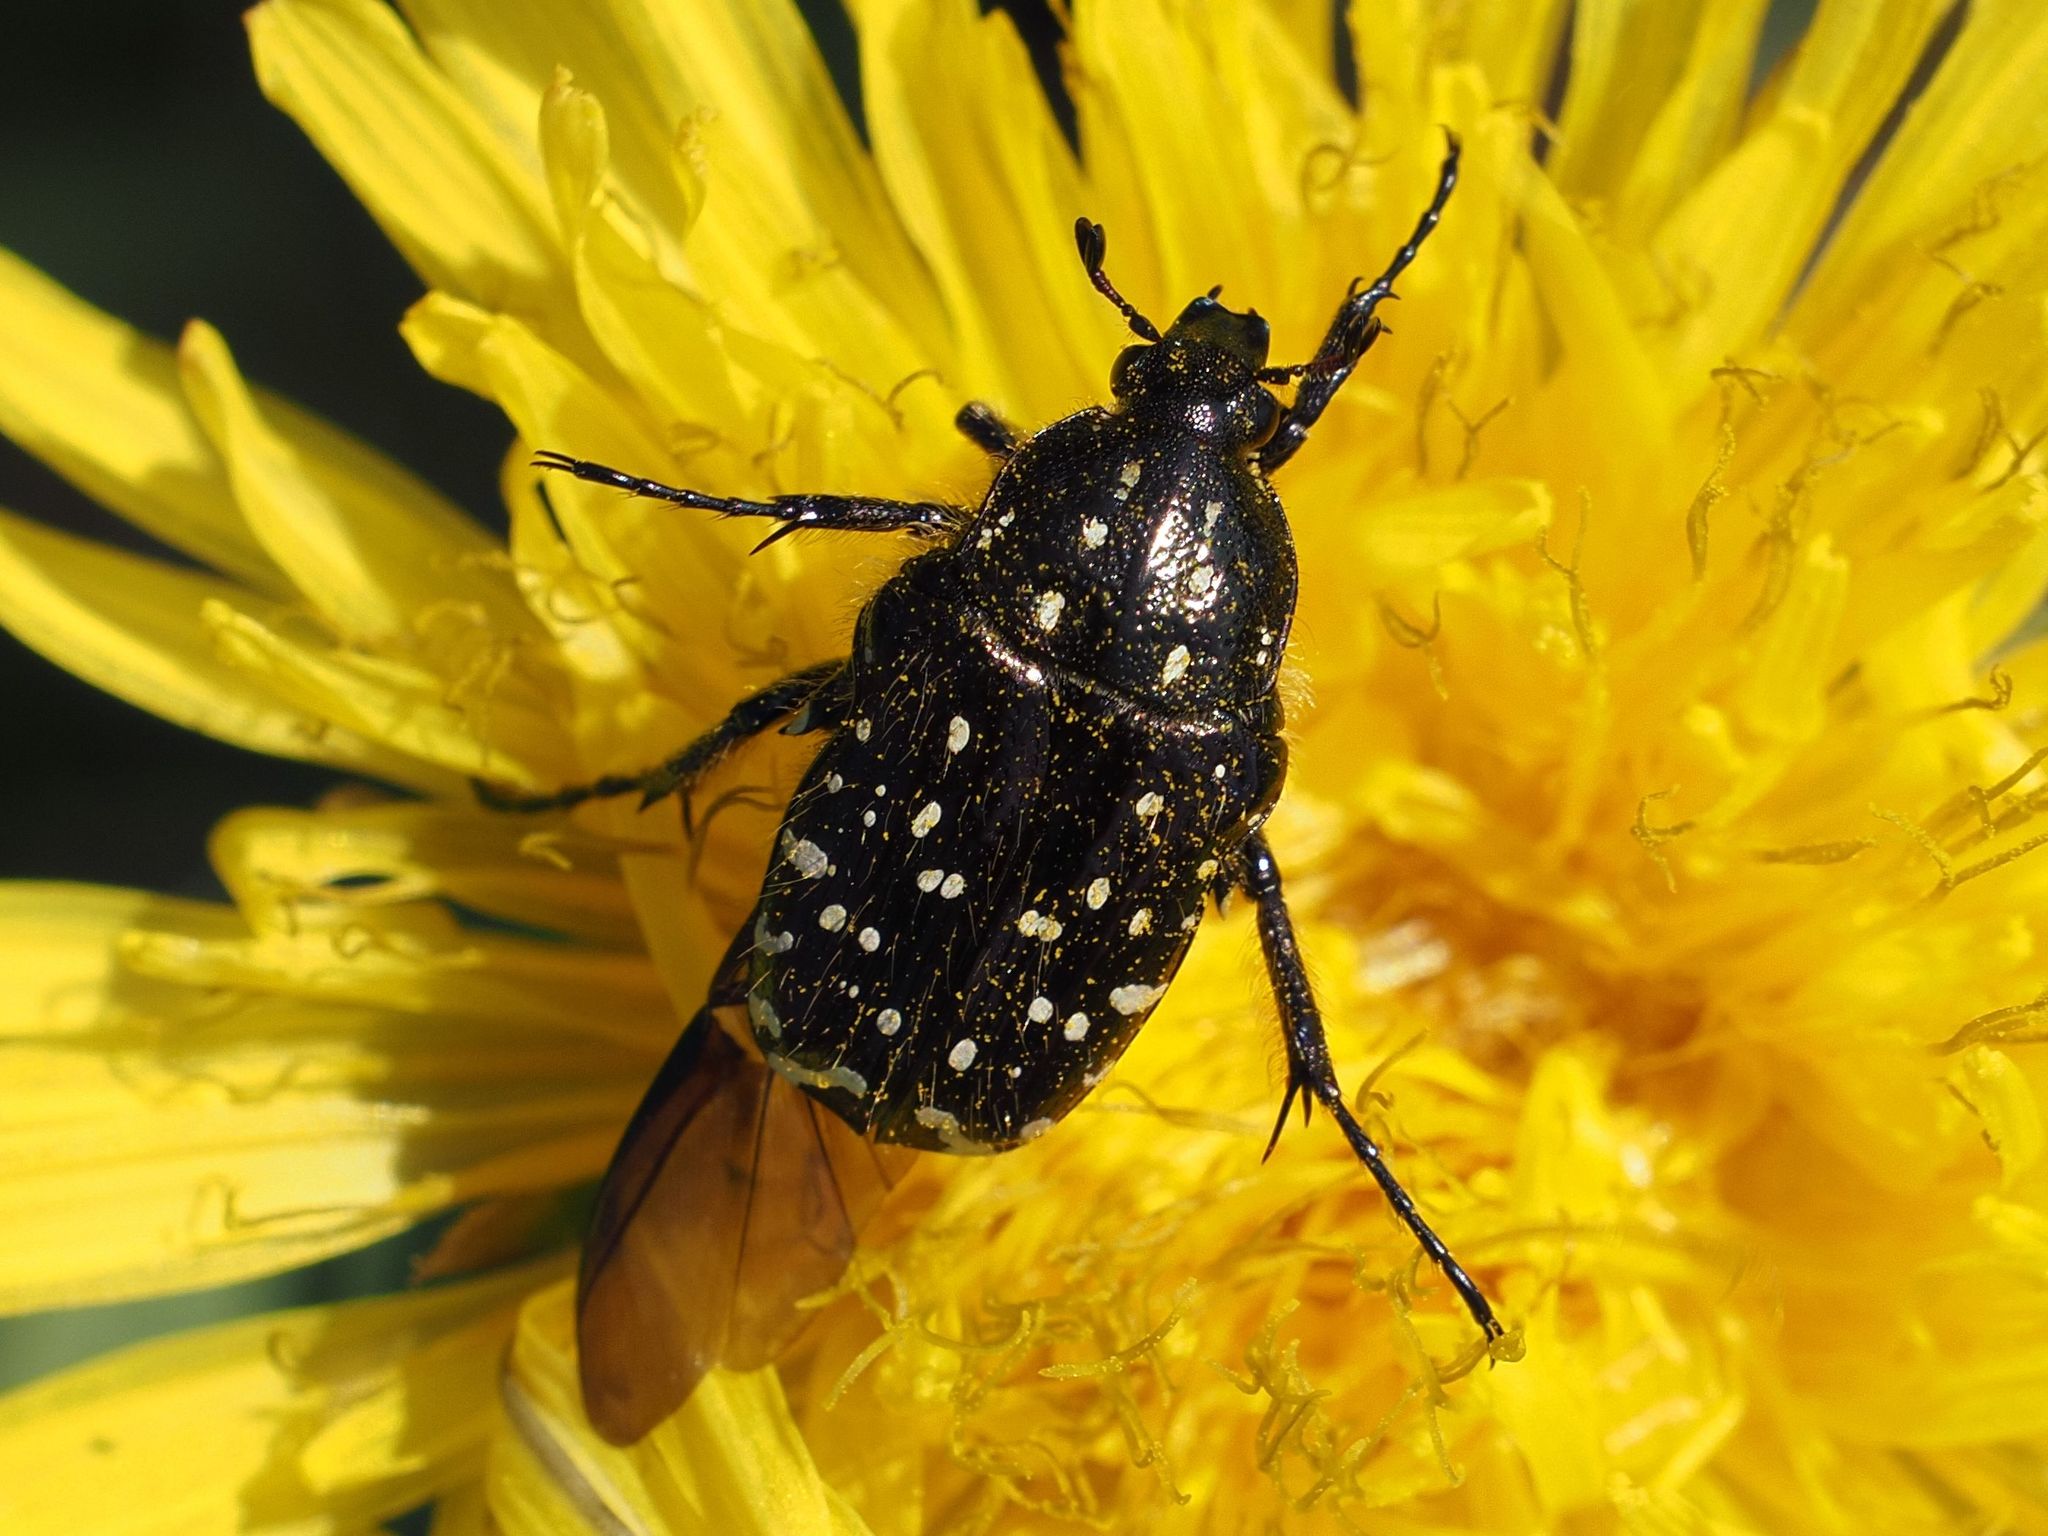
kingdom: Animalia
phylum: Arthropoda
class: Insecta
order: Coleoptera
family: Scarabaeidae
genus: Oxythyrea
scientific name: Oxythyrea funesta
